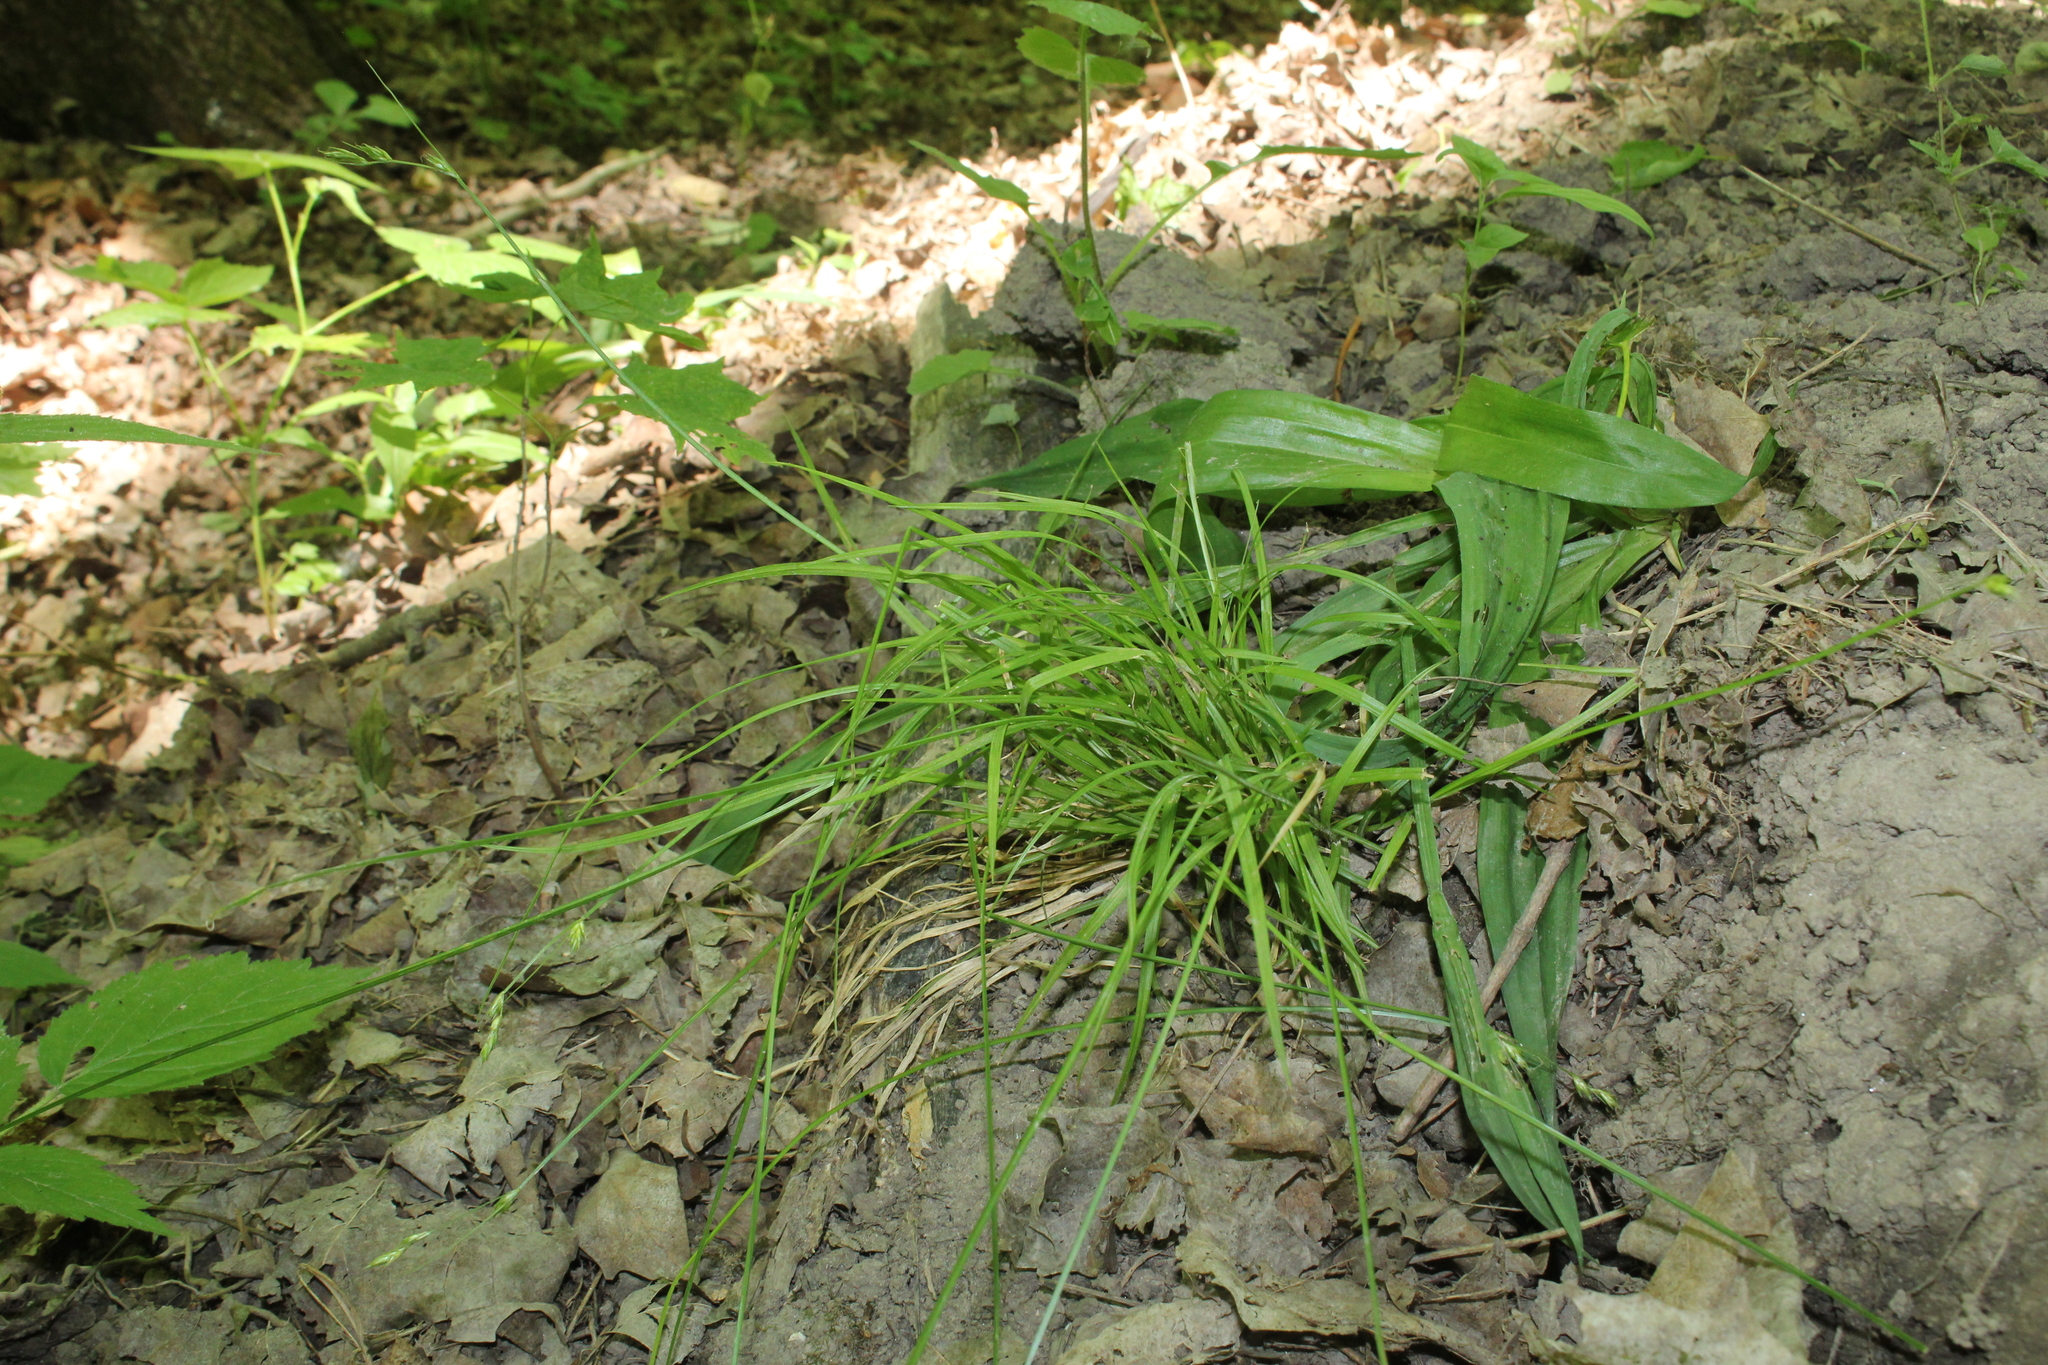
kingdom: Plantae
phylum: Tracheophyta
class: Liliopsida
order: Poales
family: Cyperaceae
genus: Carex
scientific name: Carex deweyana
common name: Dewey's sedge
